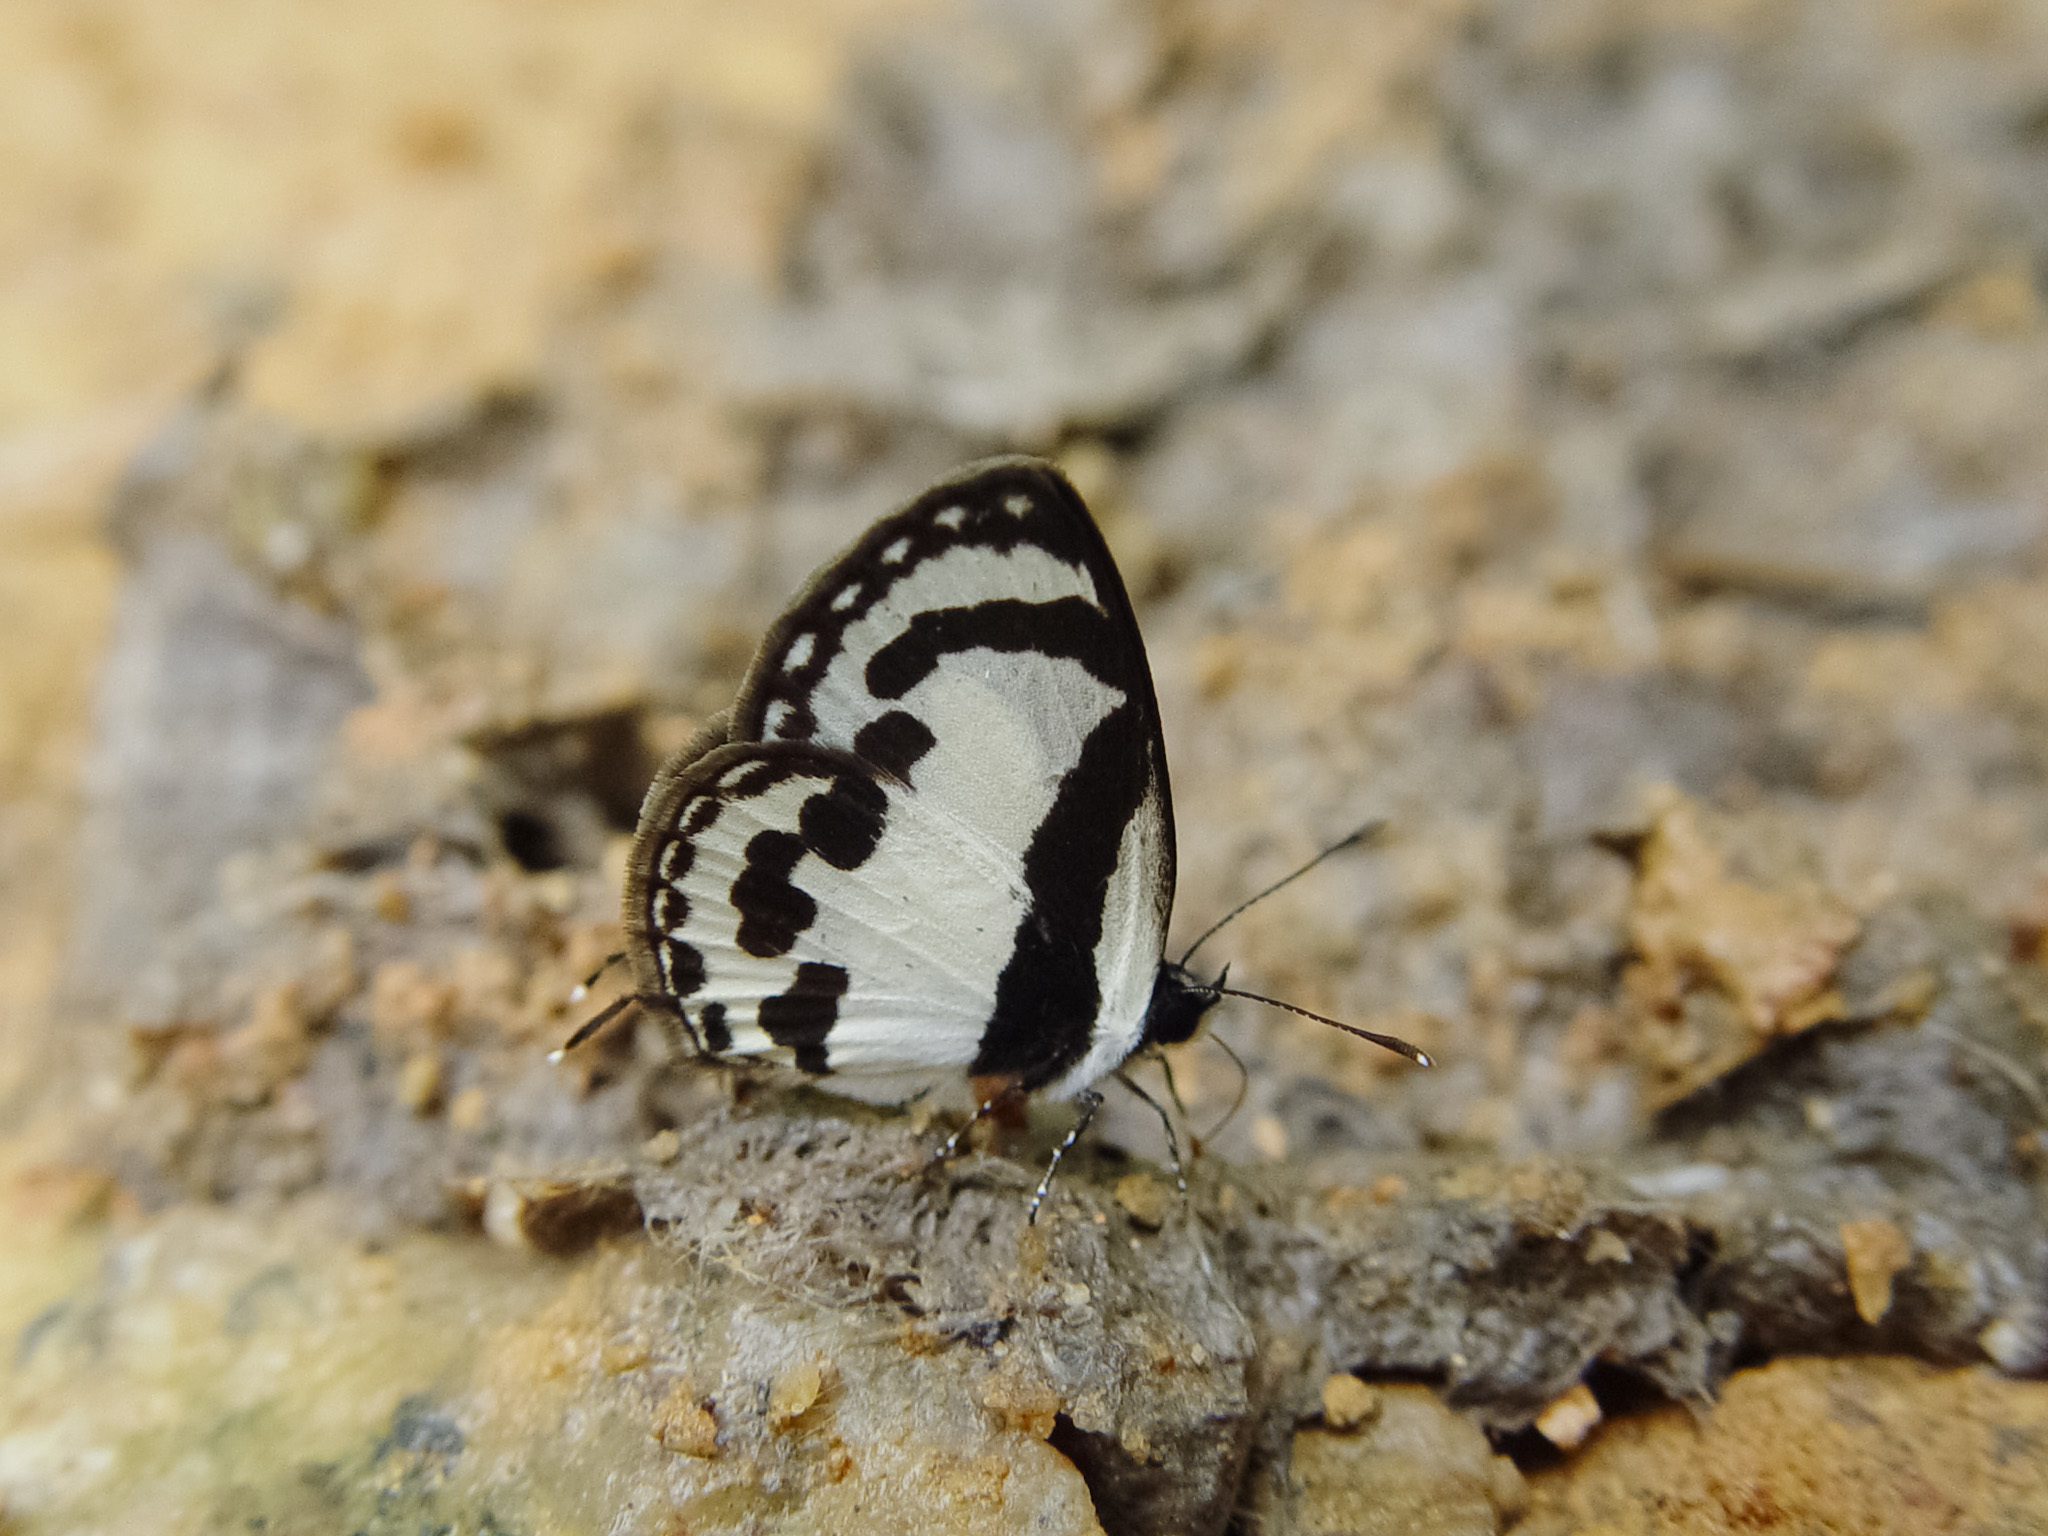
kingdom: Animalia
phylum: Arthropoda
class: Insecta
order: Lepidoptera
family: Lycaenidae
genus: Caleta
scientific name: Caleta roxus
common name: Straight pierrot
